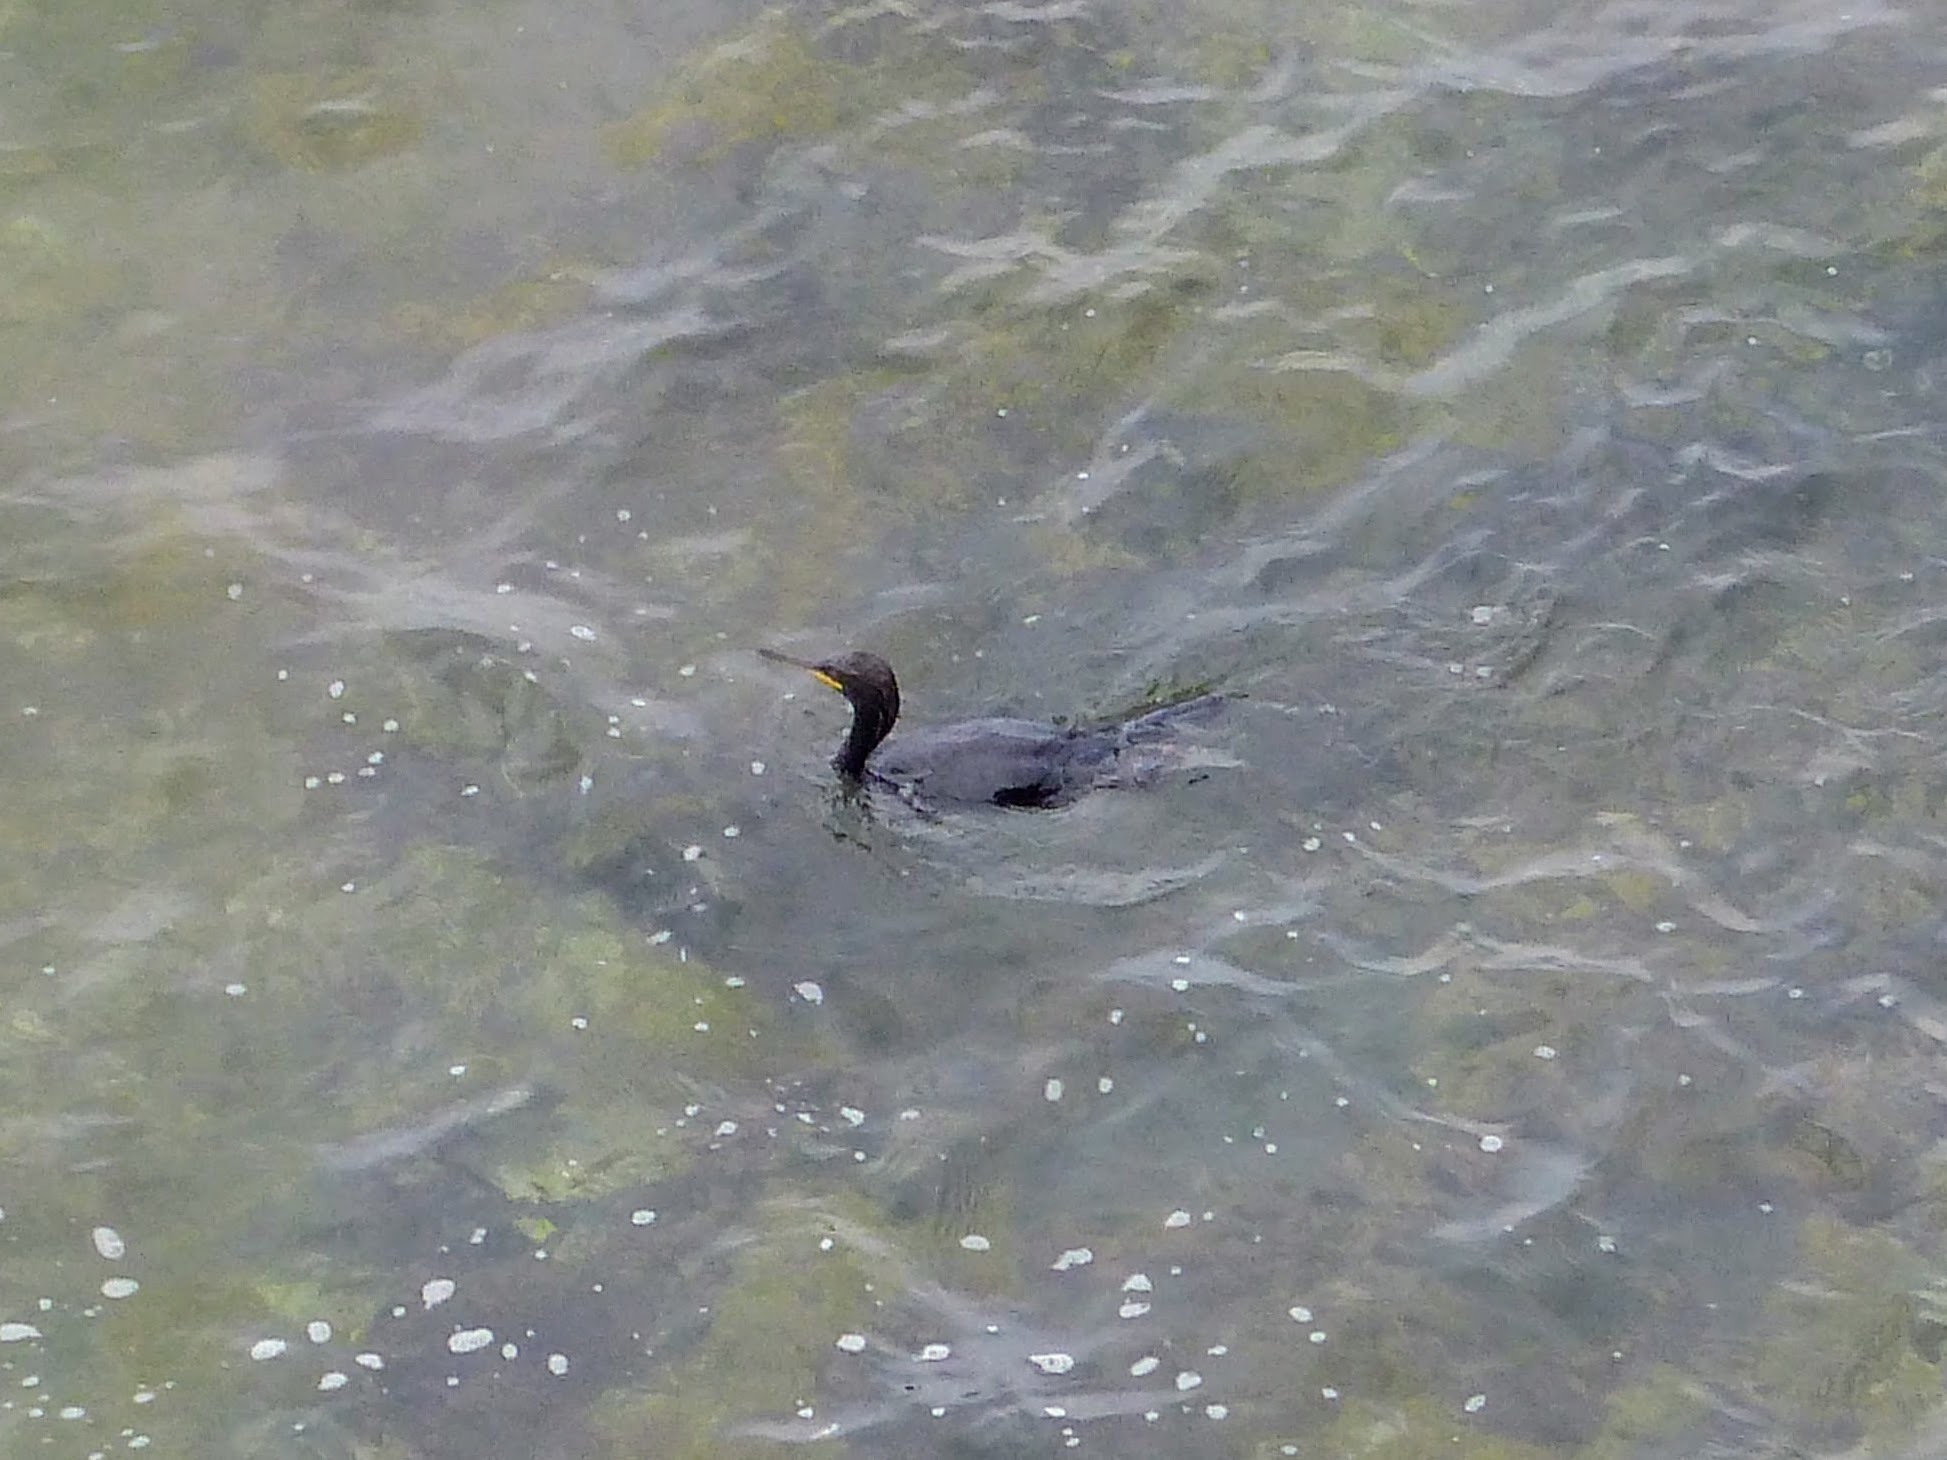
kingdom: Animalia
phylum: Chordata
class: Aves
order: Suliformes
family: Phalacrocoracidae
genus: Phalacrocorax
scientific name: Phalacrocorax aristotelis
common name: European shag
